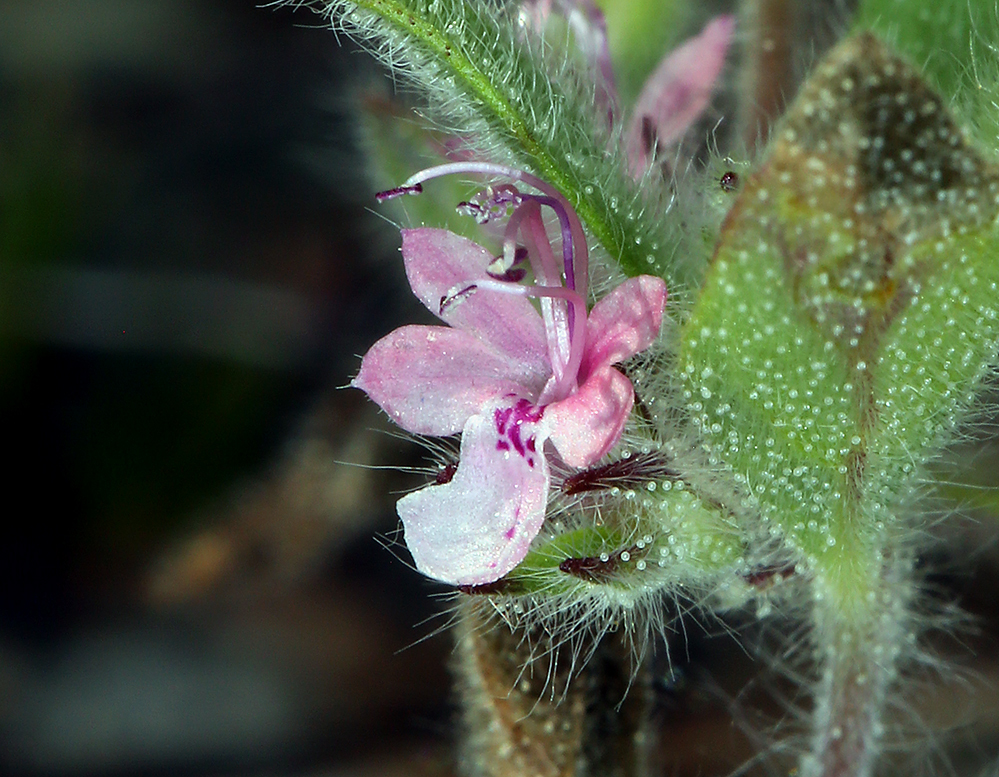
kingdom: Plantae
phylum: Tracheophyta
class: Magnoliopsida
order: Lamiales
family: Lamiaceae
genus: Trichostema
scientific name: Trichostema oblongum
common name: Mountain bluecurls
